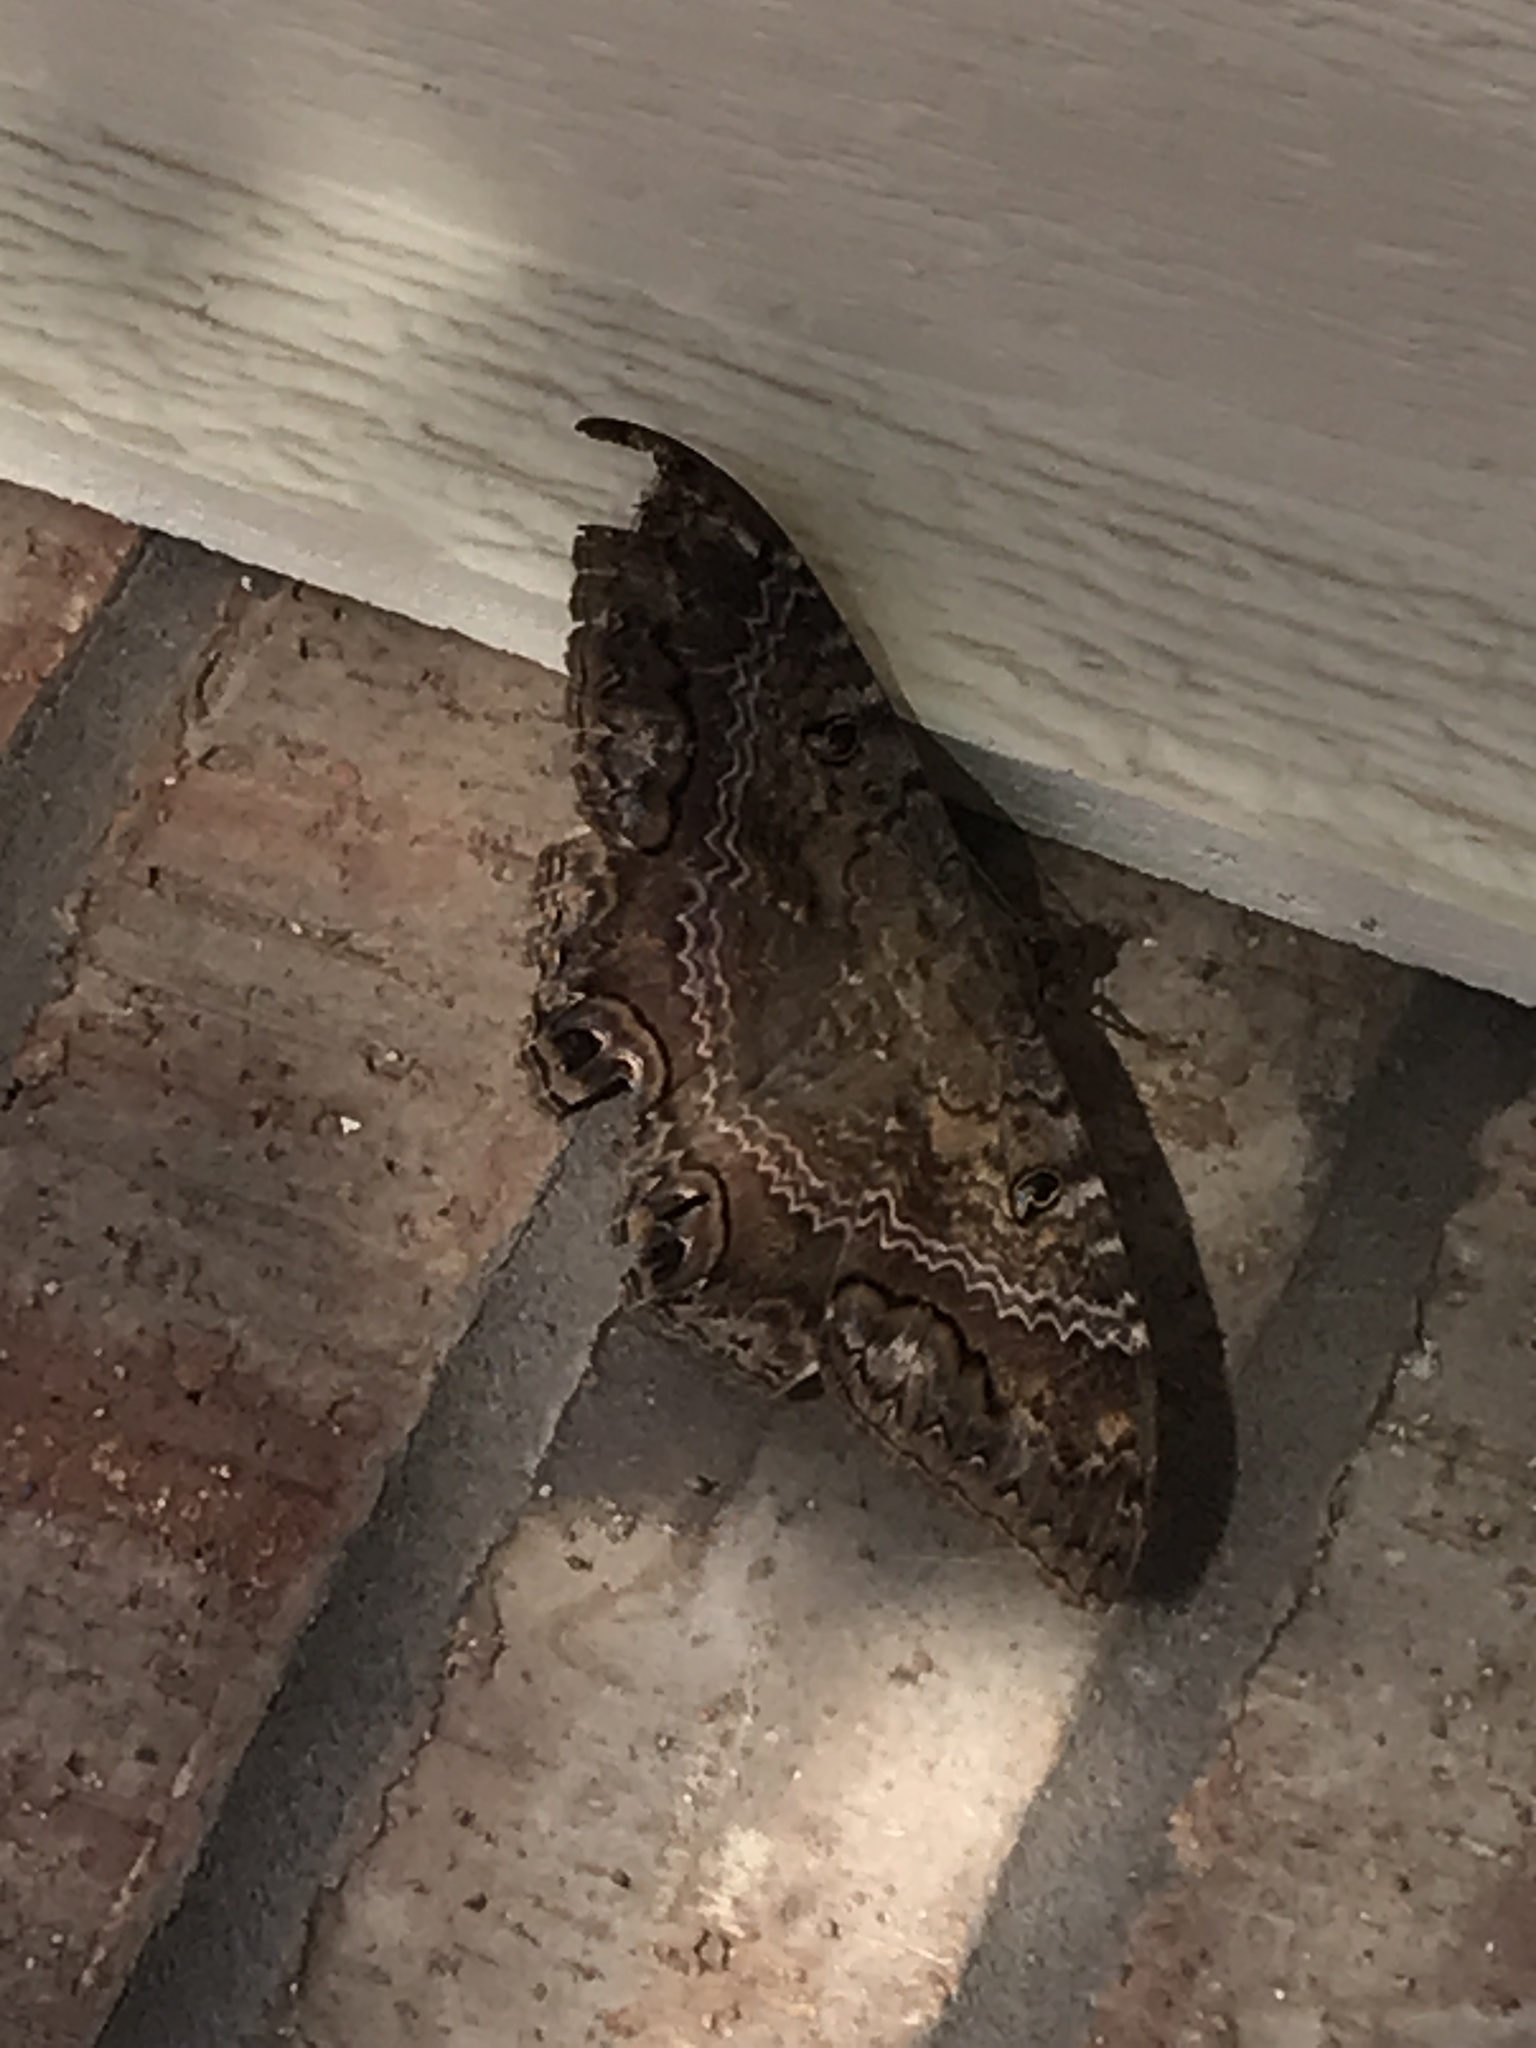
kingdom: Animalia
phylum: Arthropoda
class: Insecta
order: Lepidoptera
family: Erebidae
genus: Ascalapha
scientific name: Ascalapha odorata
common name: Black witch
